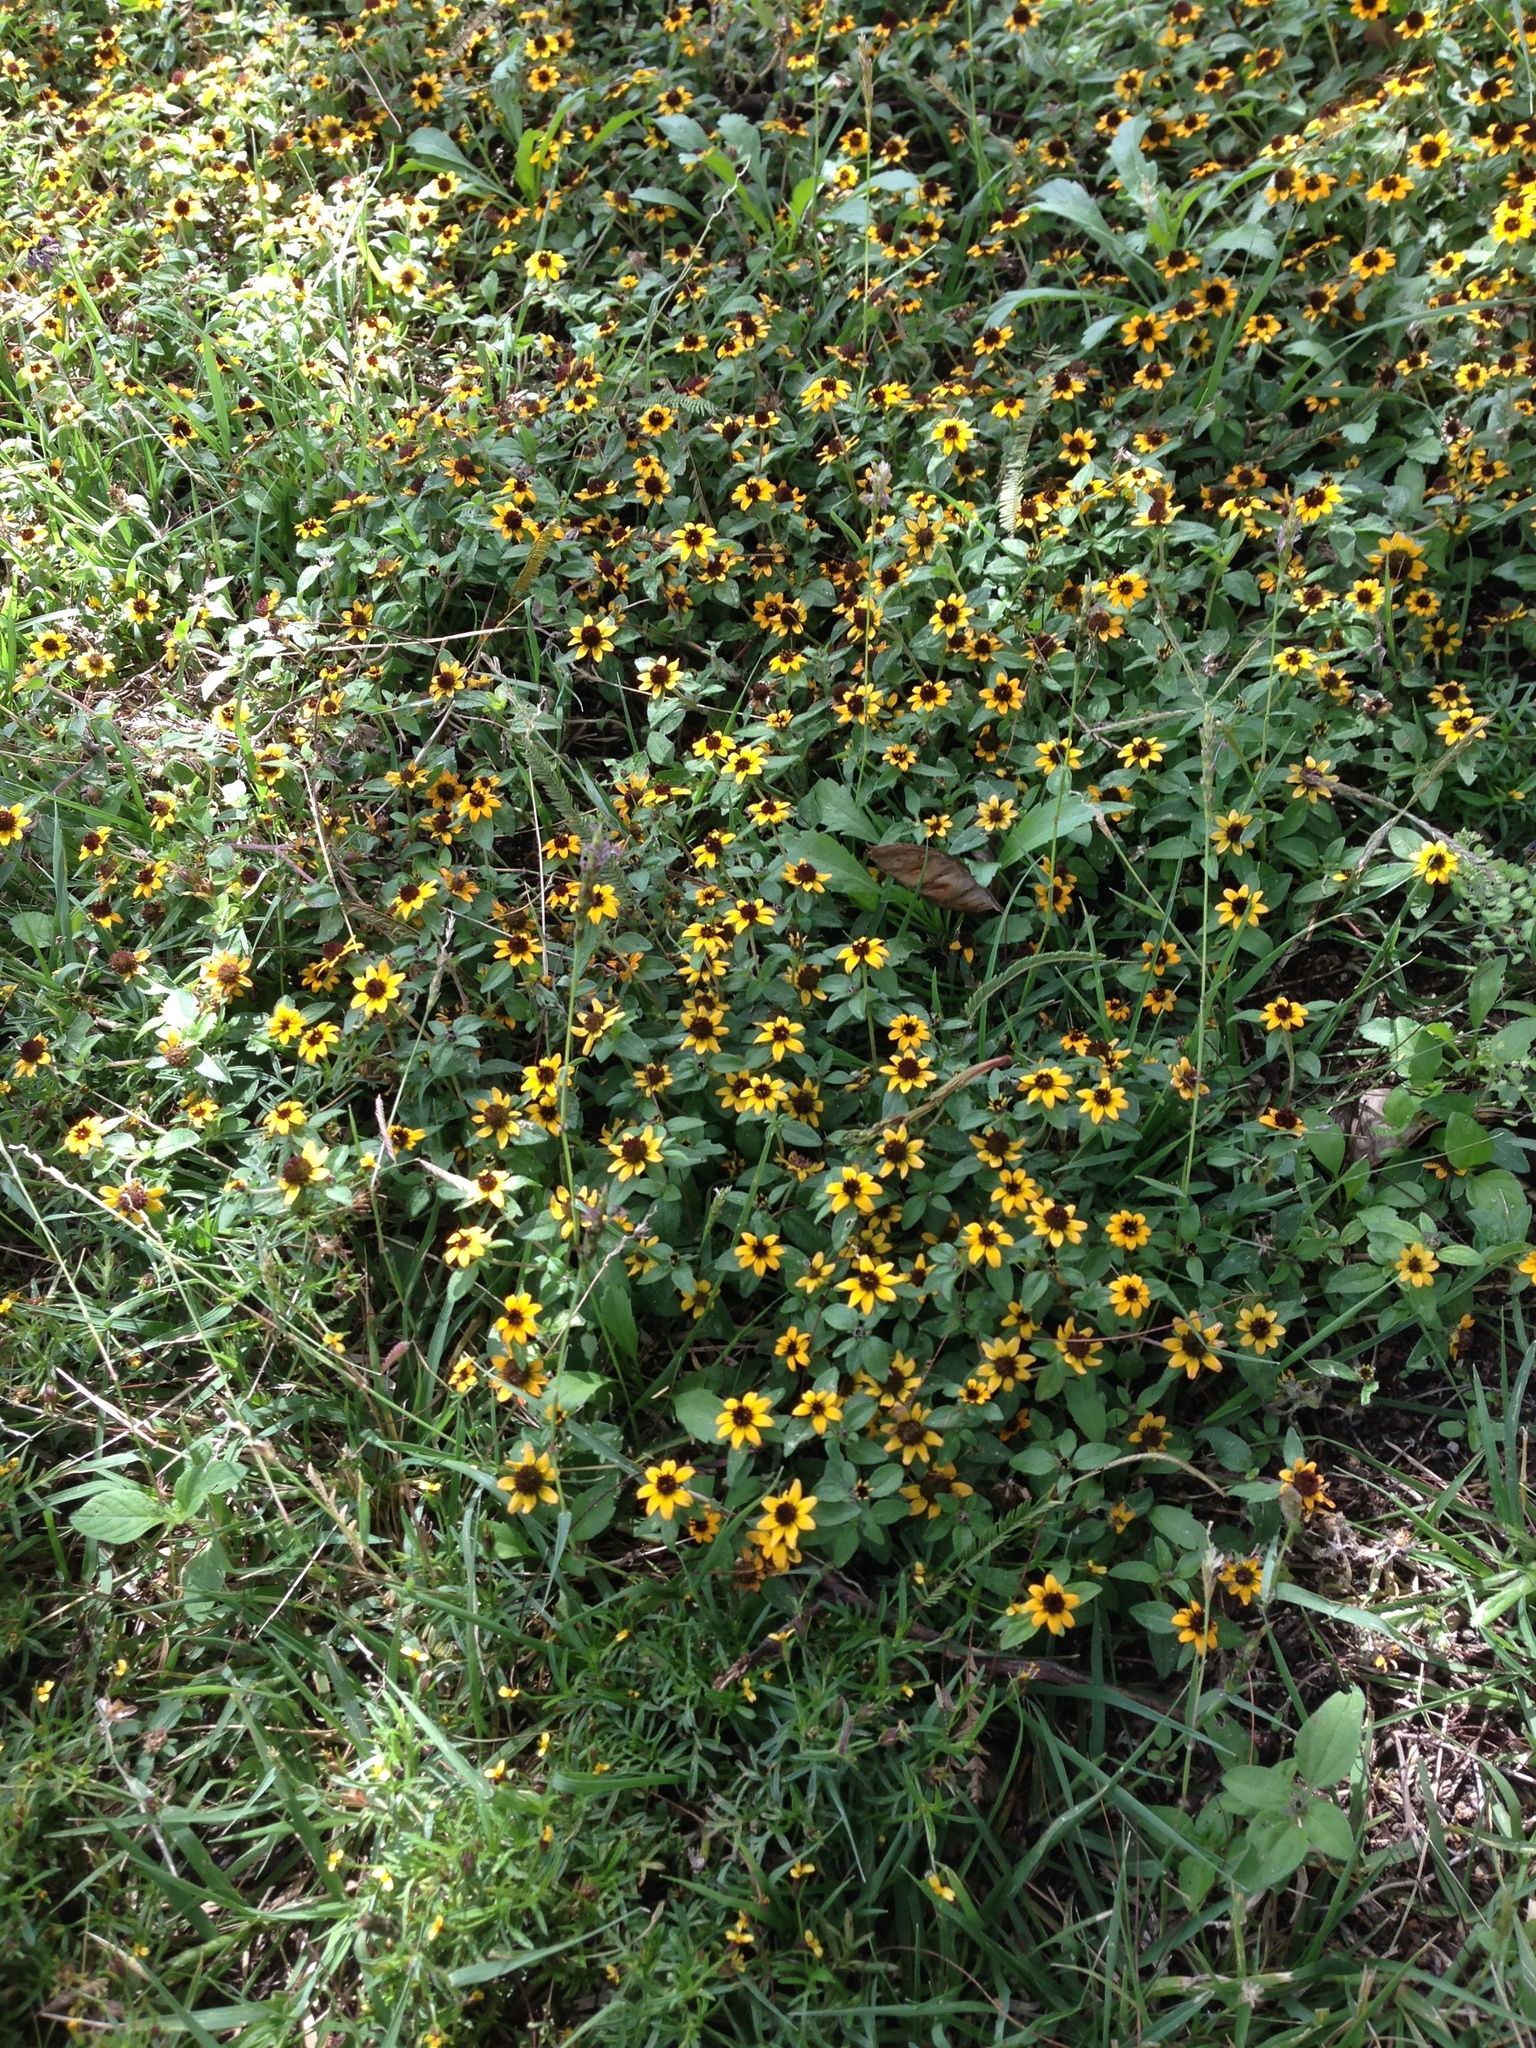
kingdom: Plantae
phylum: Tracheophyta
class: Magnoliopsida
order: Asterales
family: Asteraceae
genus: Sanvitalia
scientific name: Sanvitalia procumbens
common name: Mexican creeping zinnia
